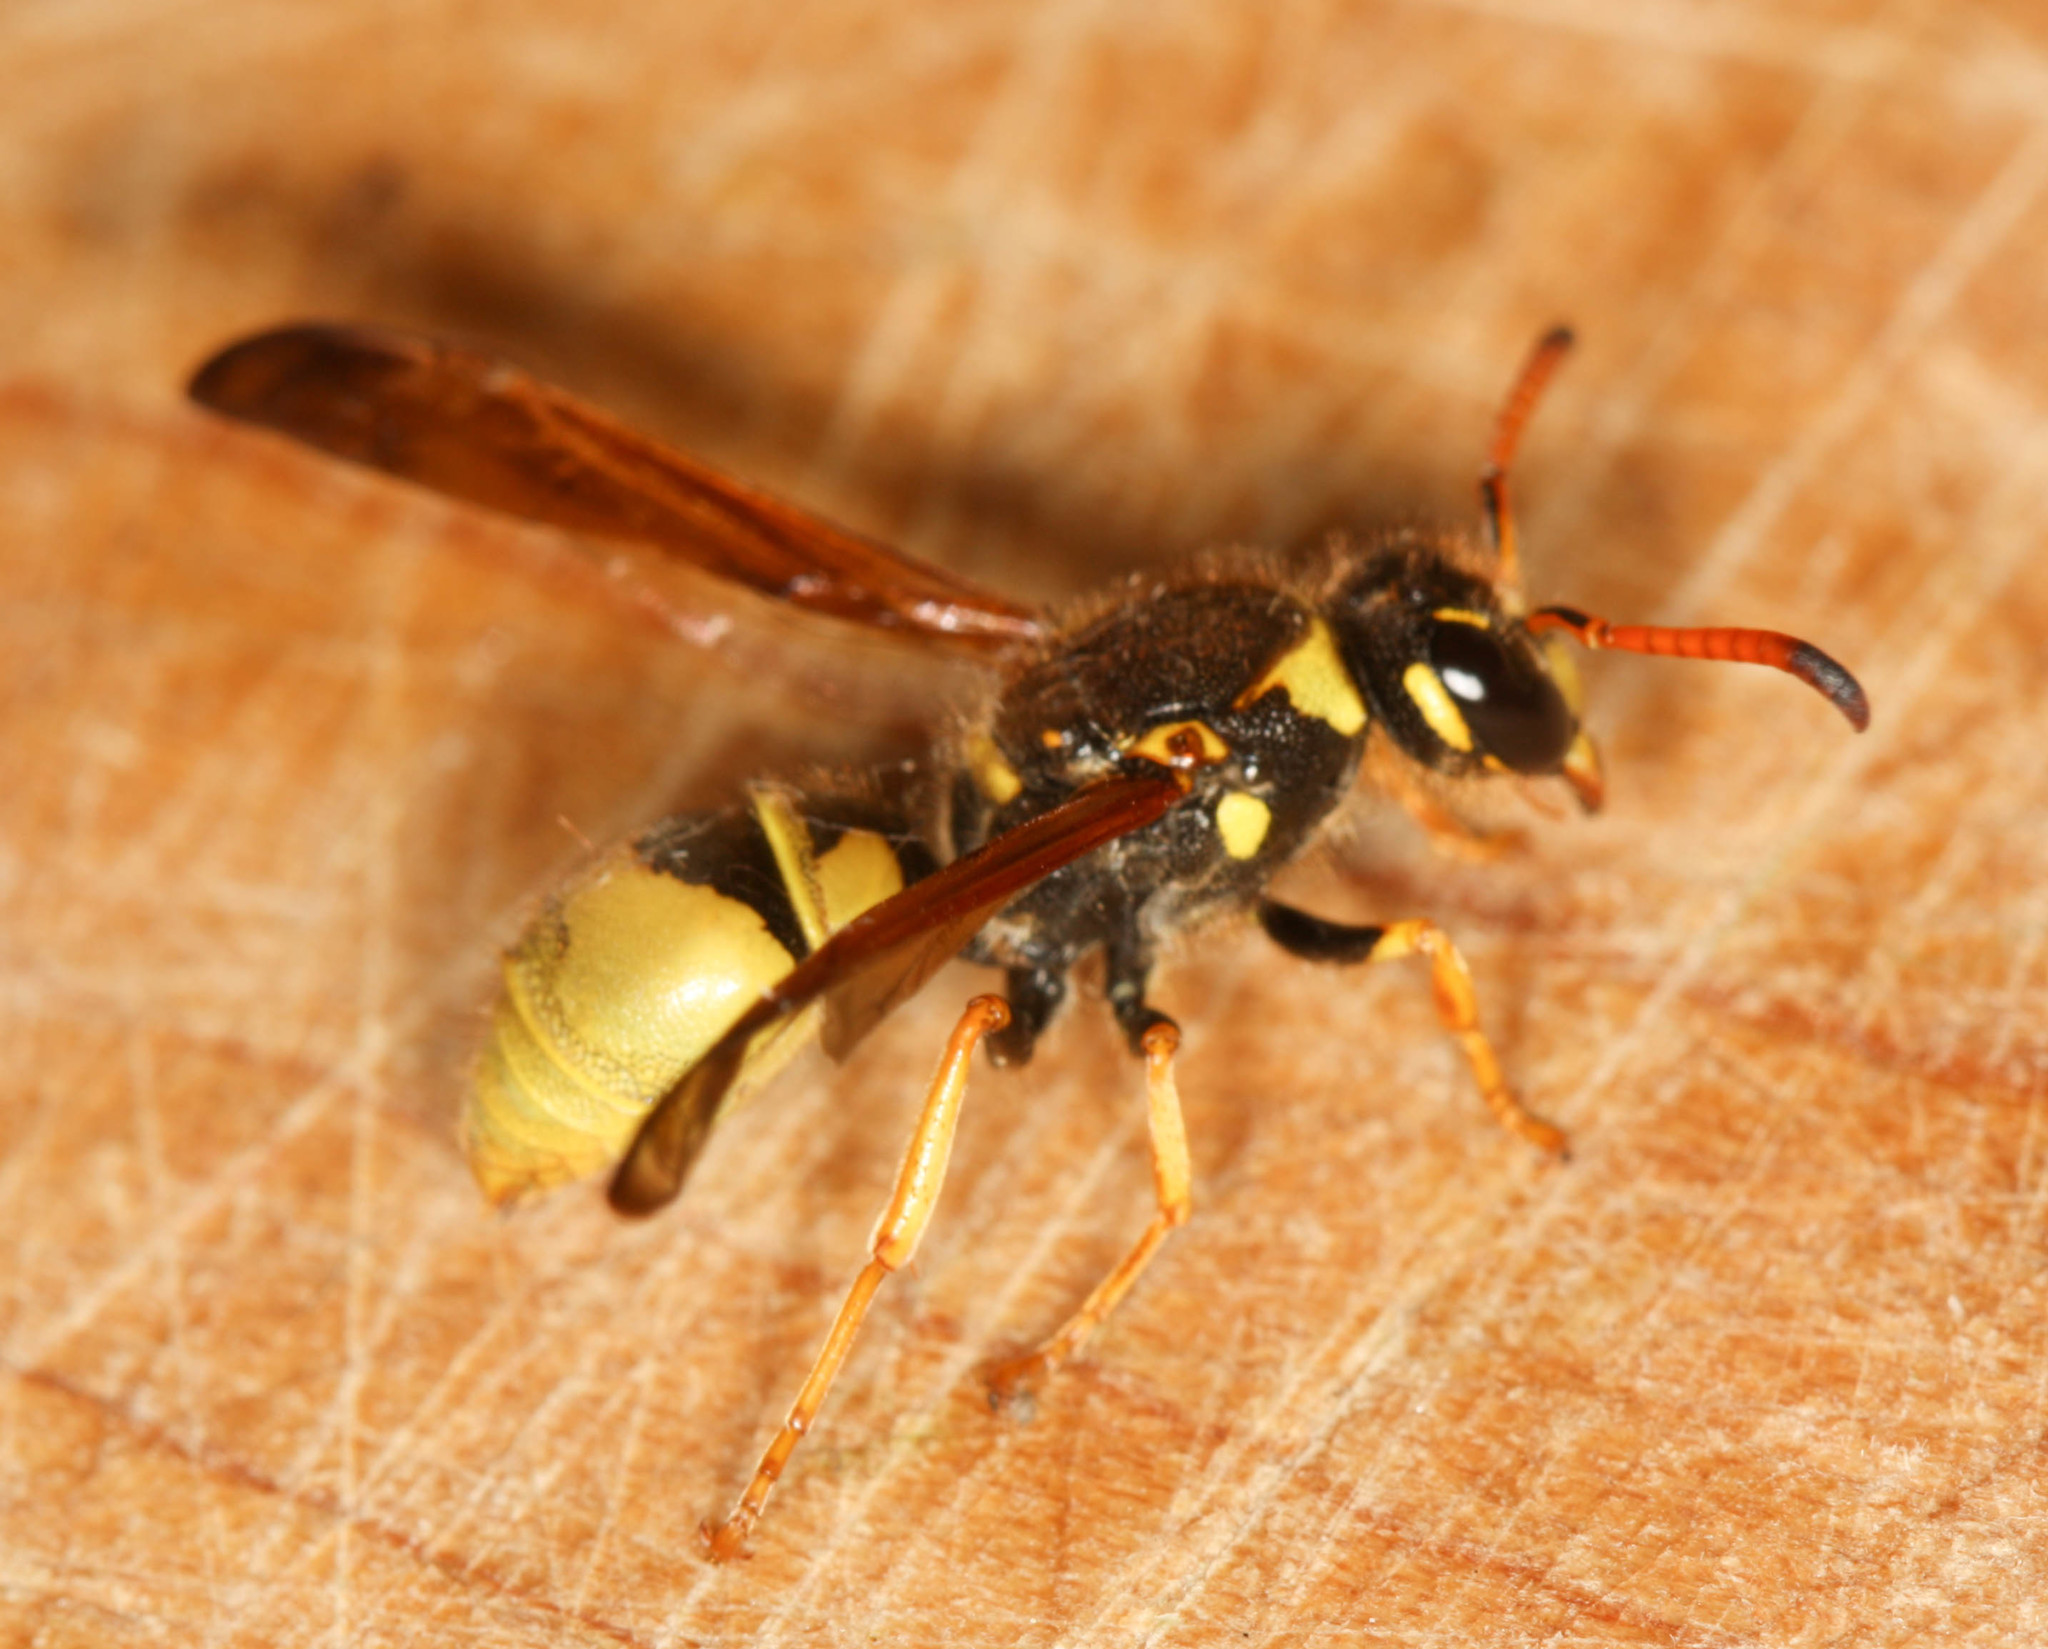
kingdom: Animalia
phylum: Arthropoda
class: Insecta
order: Hymenoptera
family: Vespidae
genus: Ancistrocerus
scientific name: Ancistrocerus
